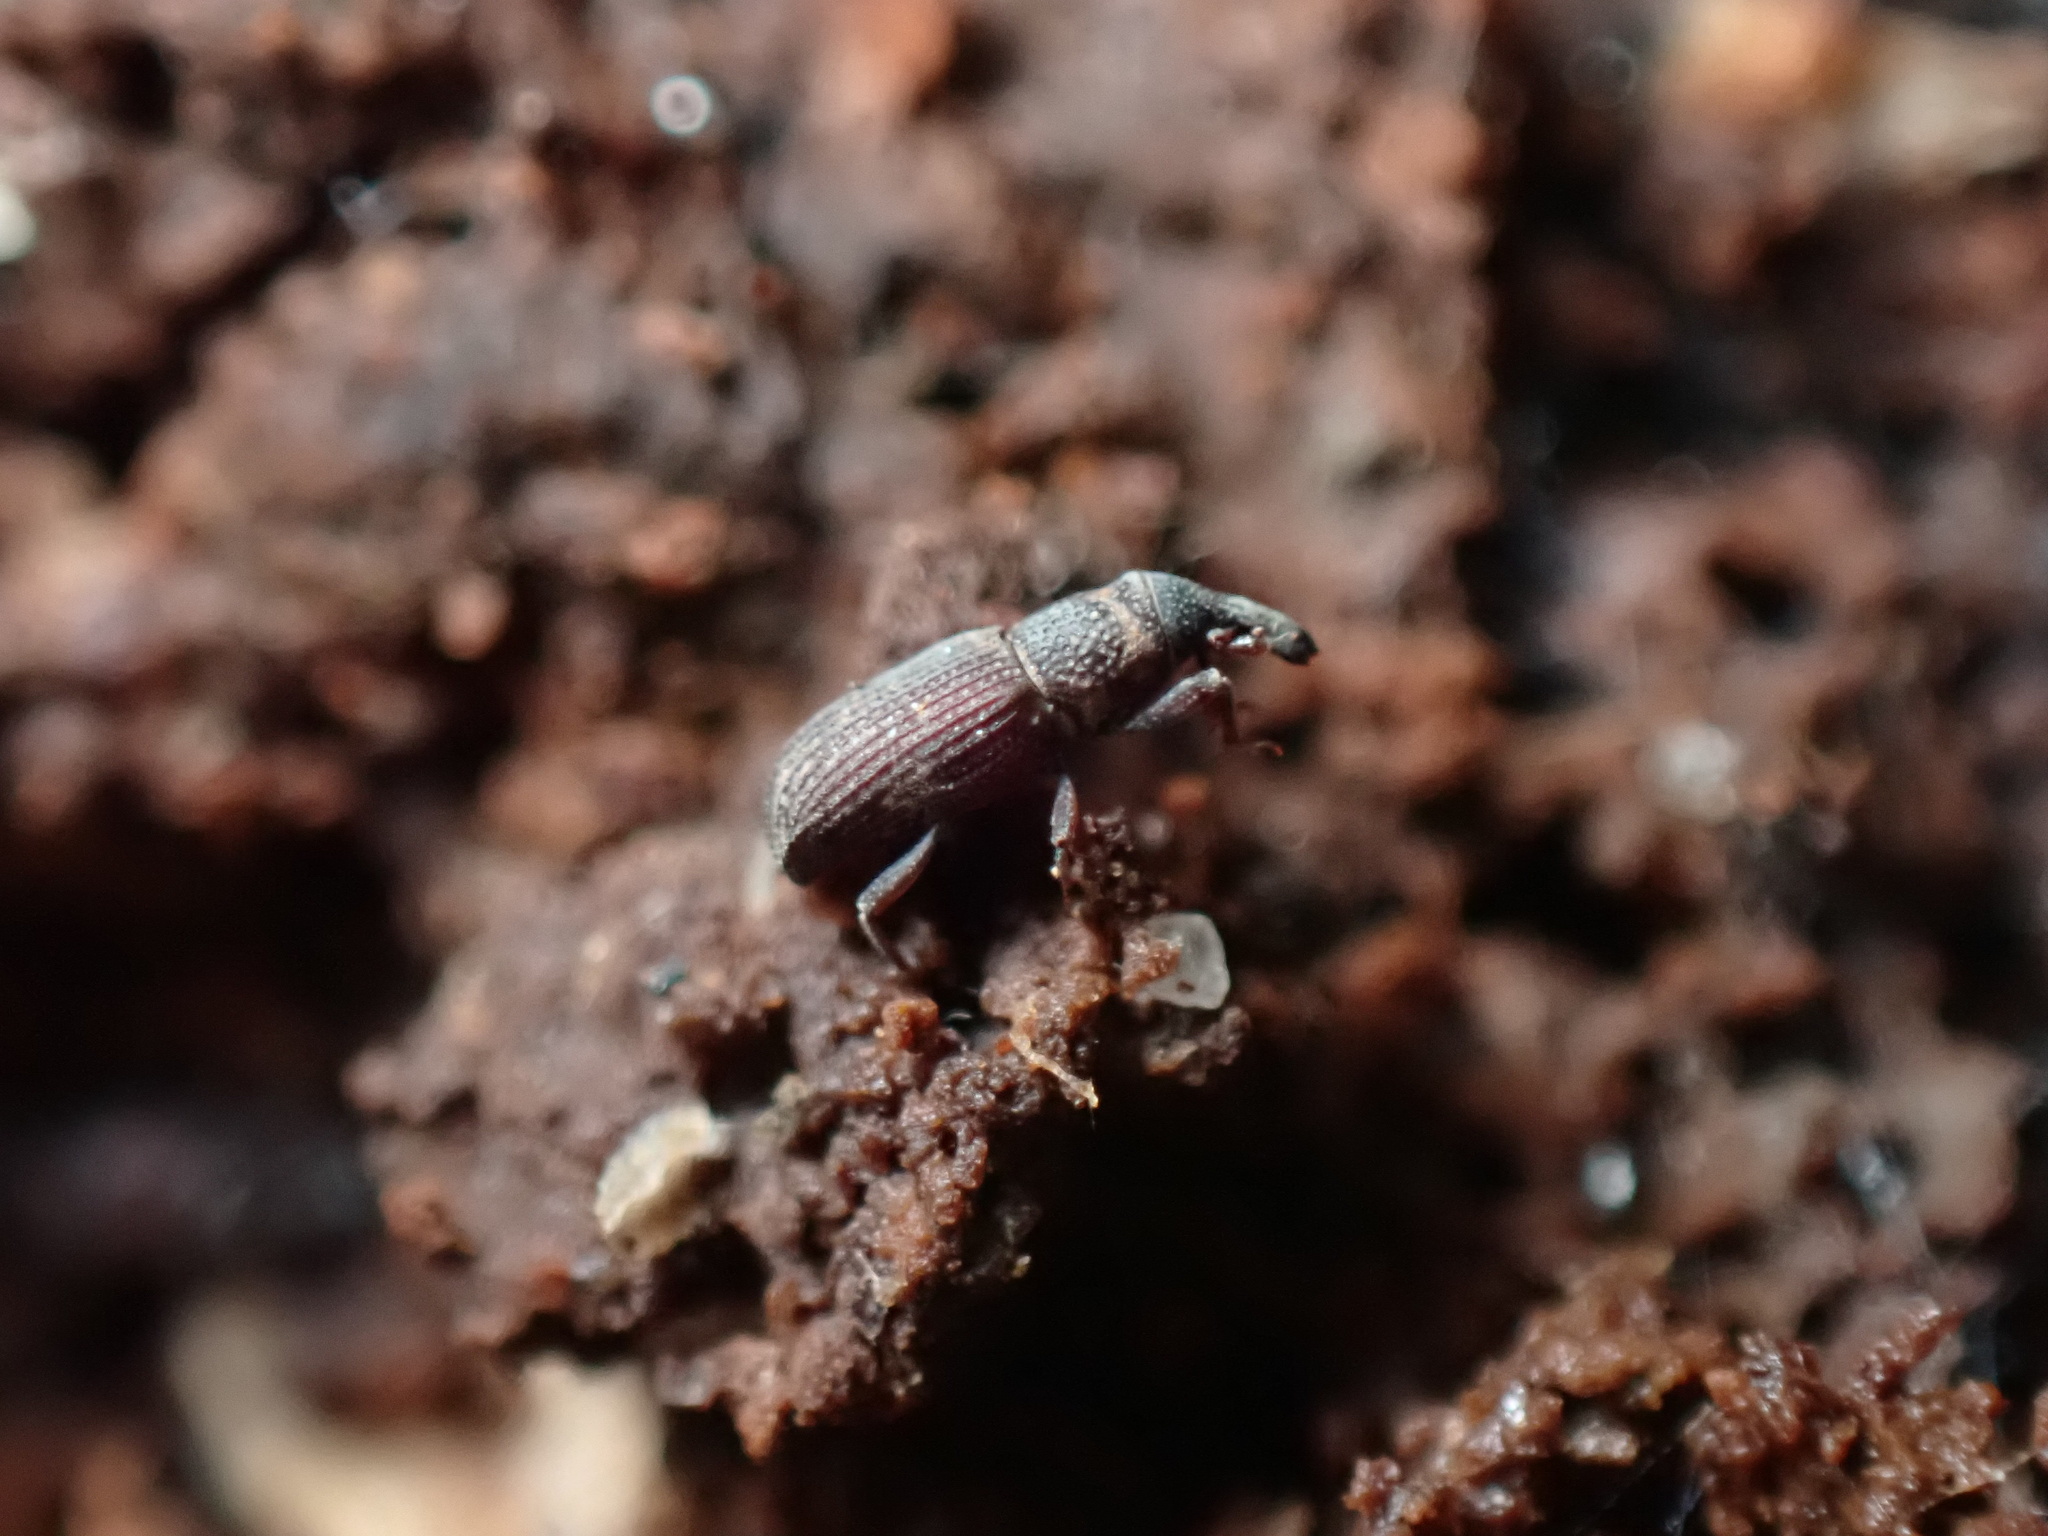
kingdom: Animalia
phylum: Arthropoda
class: Insecta
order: Coleoptera
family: Dryophthoridae
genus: Dryophthorus
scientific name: Dryophthorus americanus
